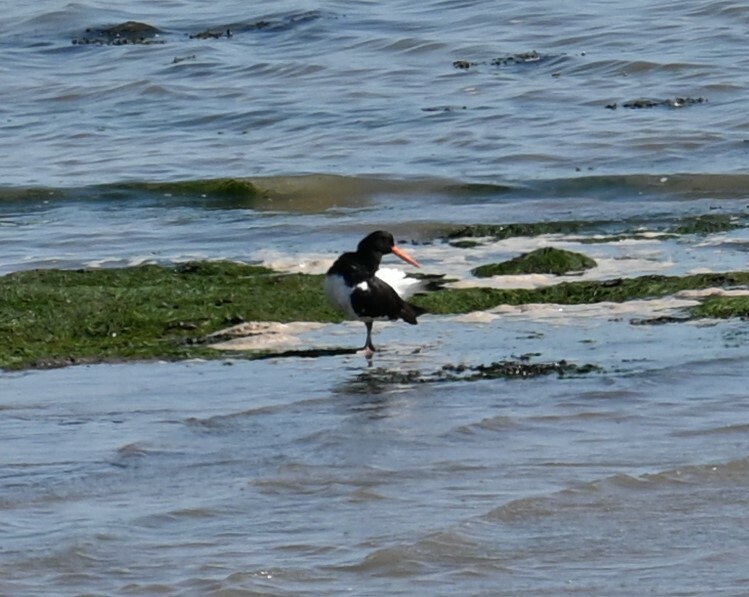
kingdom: Animalia
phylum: Chordata
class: Aves
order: Charadriiformes
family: Haematopodidae
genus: Haematopus
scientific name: Haematopus ostralegus
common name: Eurasian oystercatcher
